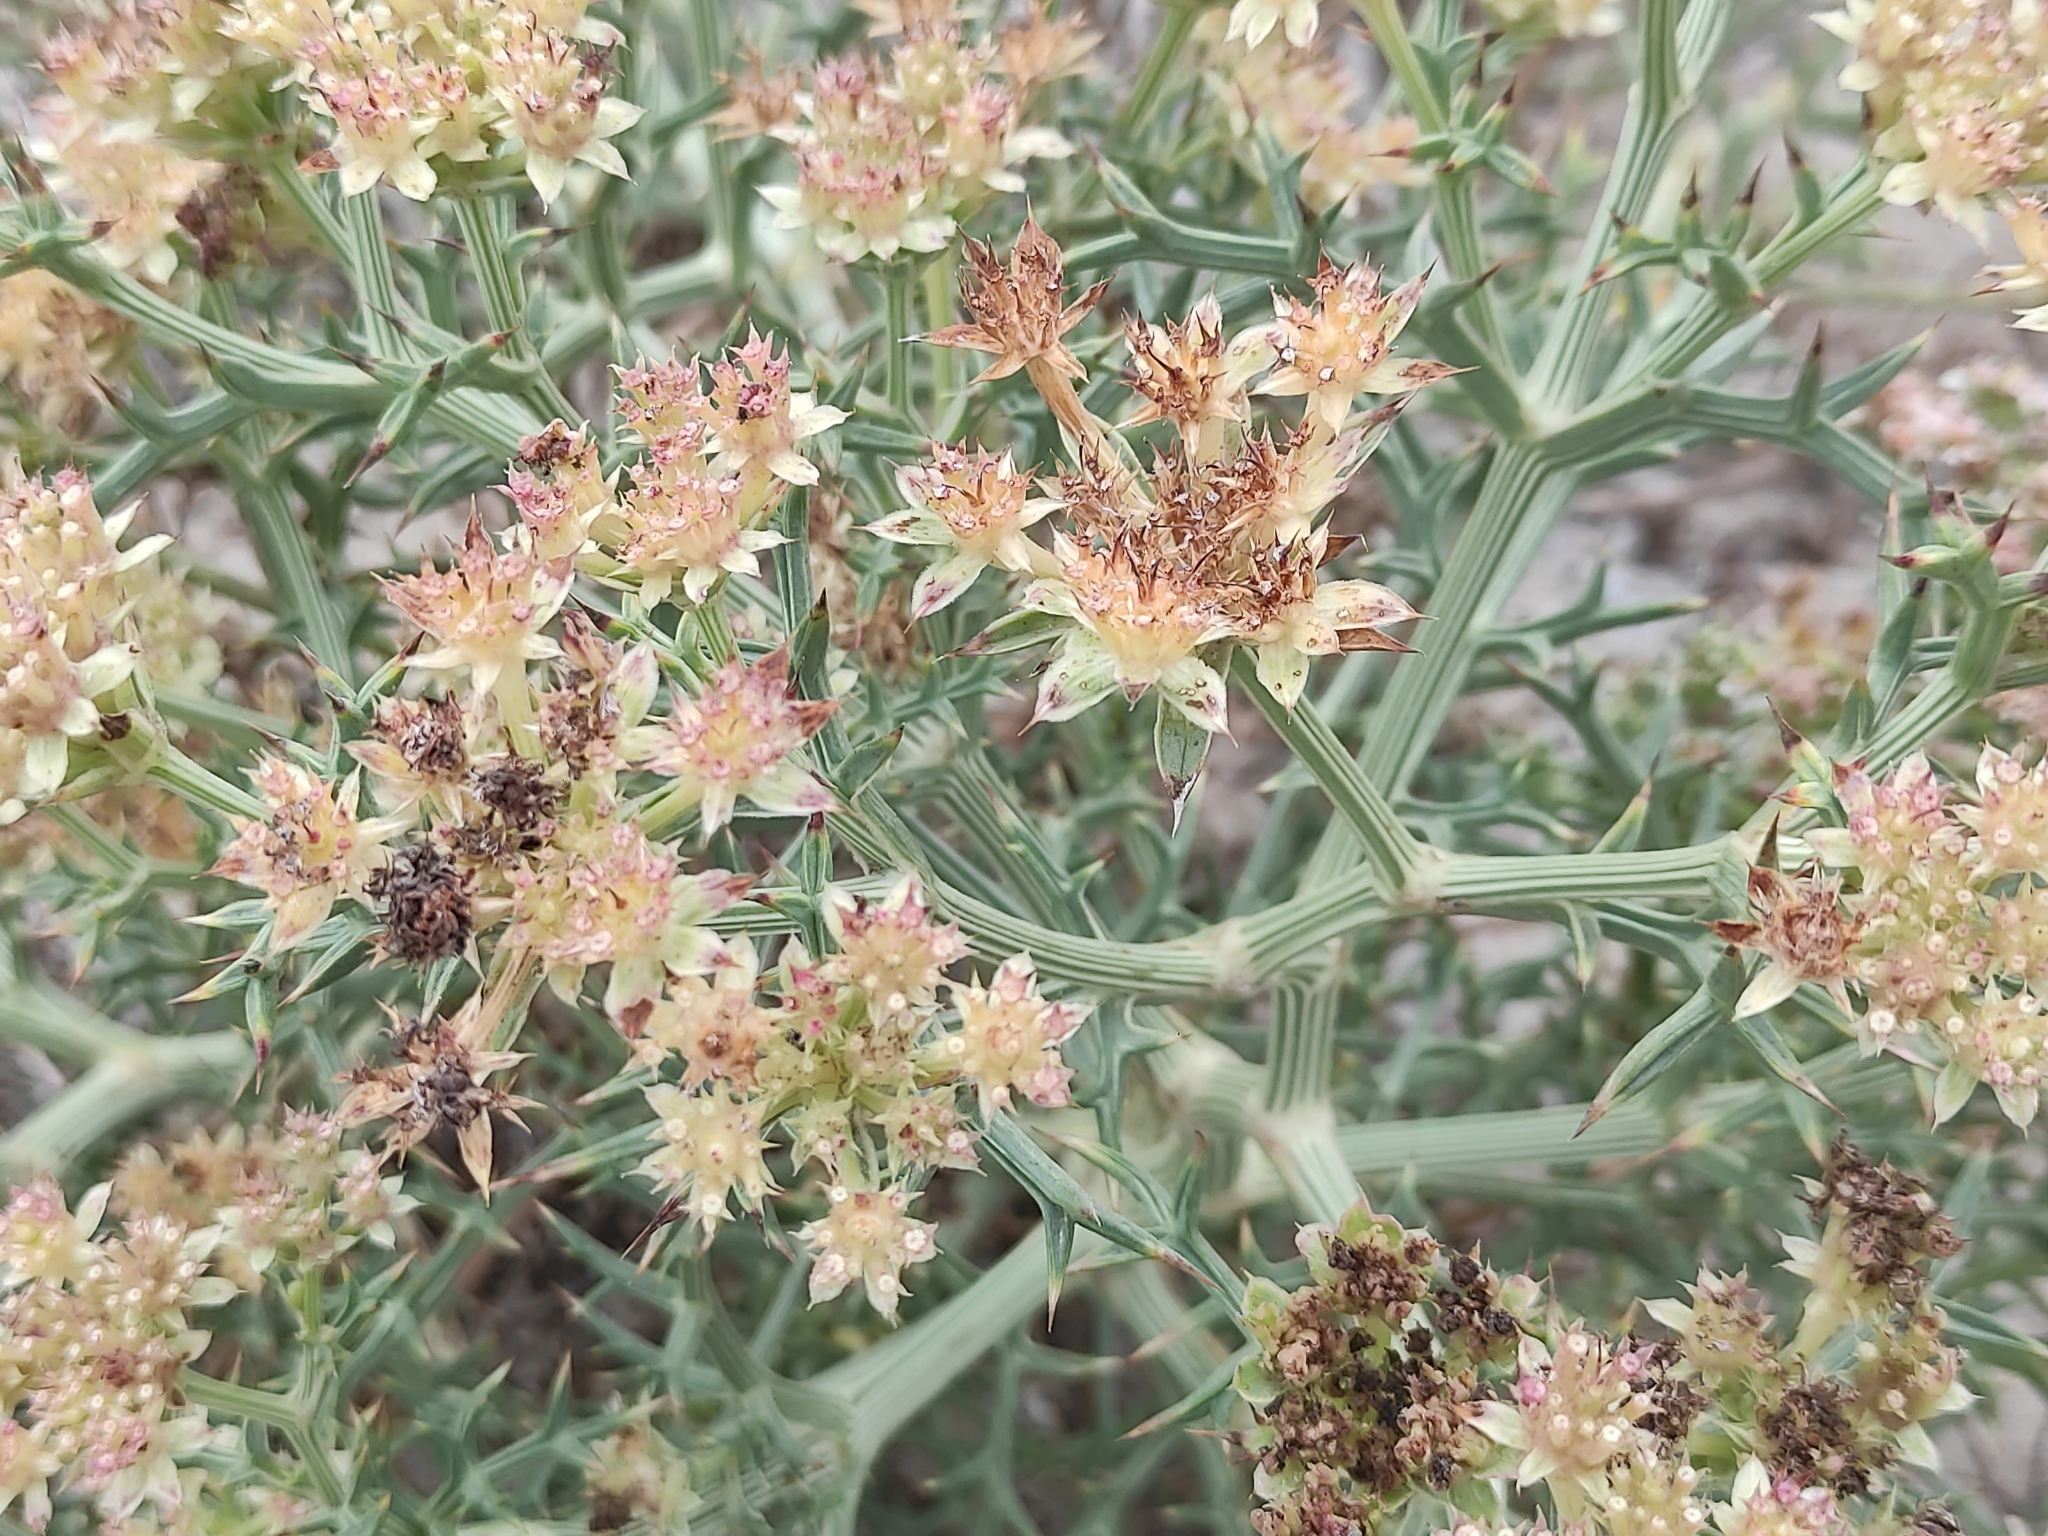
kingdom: Plantae
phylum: Tracheophyta
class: Magnoliopsida
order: Apiales
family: Apiaceae
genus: Echinophora
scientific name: Echinophora spinosa
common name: Prickly samphire
